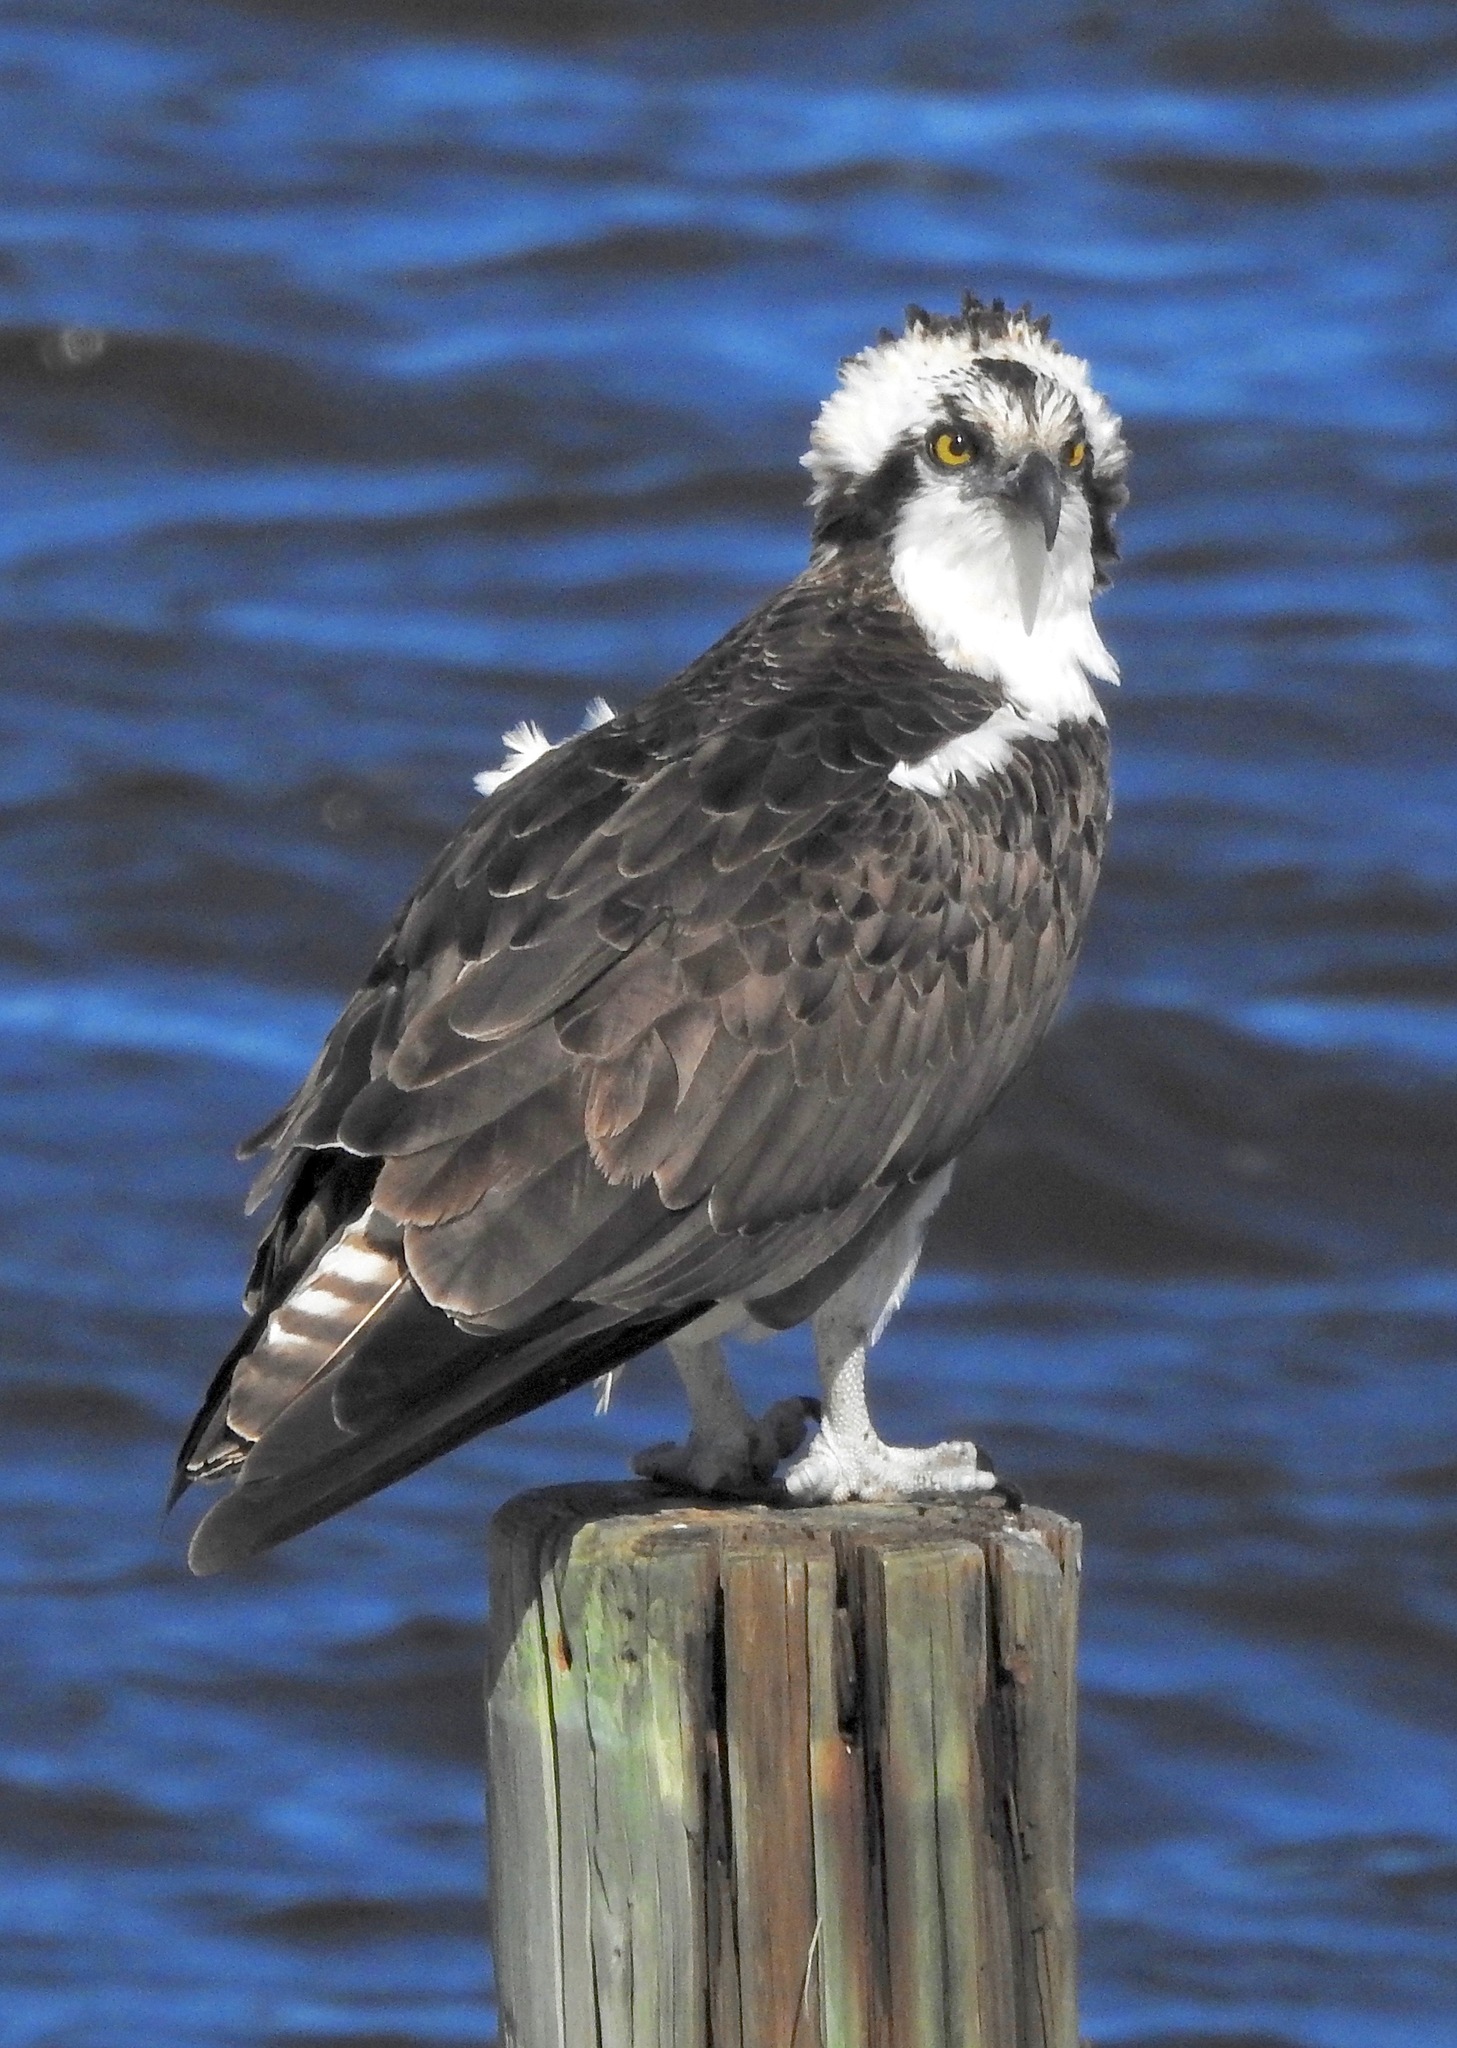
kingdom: Animalia
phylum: Chordata
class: Aves
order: Accipitriformes
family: Pandionidae
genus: Pandion
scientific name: Pandion haliaetus
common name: Osprey
